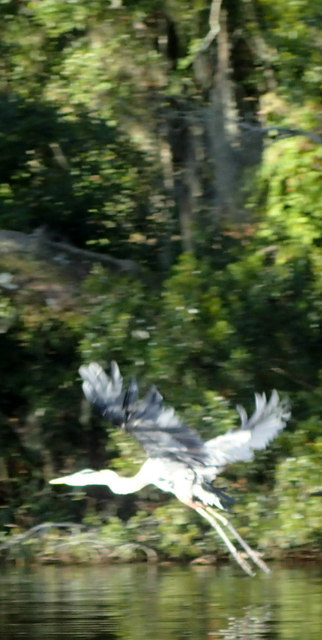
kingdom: Animalia
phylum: Chordata
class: Aves
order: Pelecaniformes
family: Ardeidae
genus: Ardea
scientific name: Ardea herodias
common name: Great blue heron
